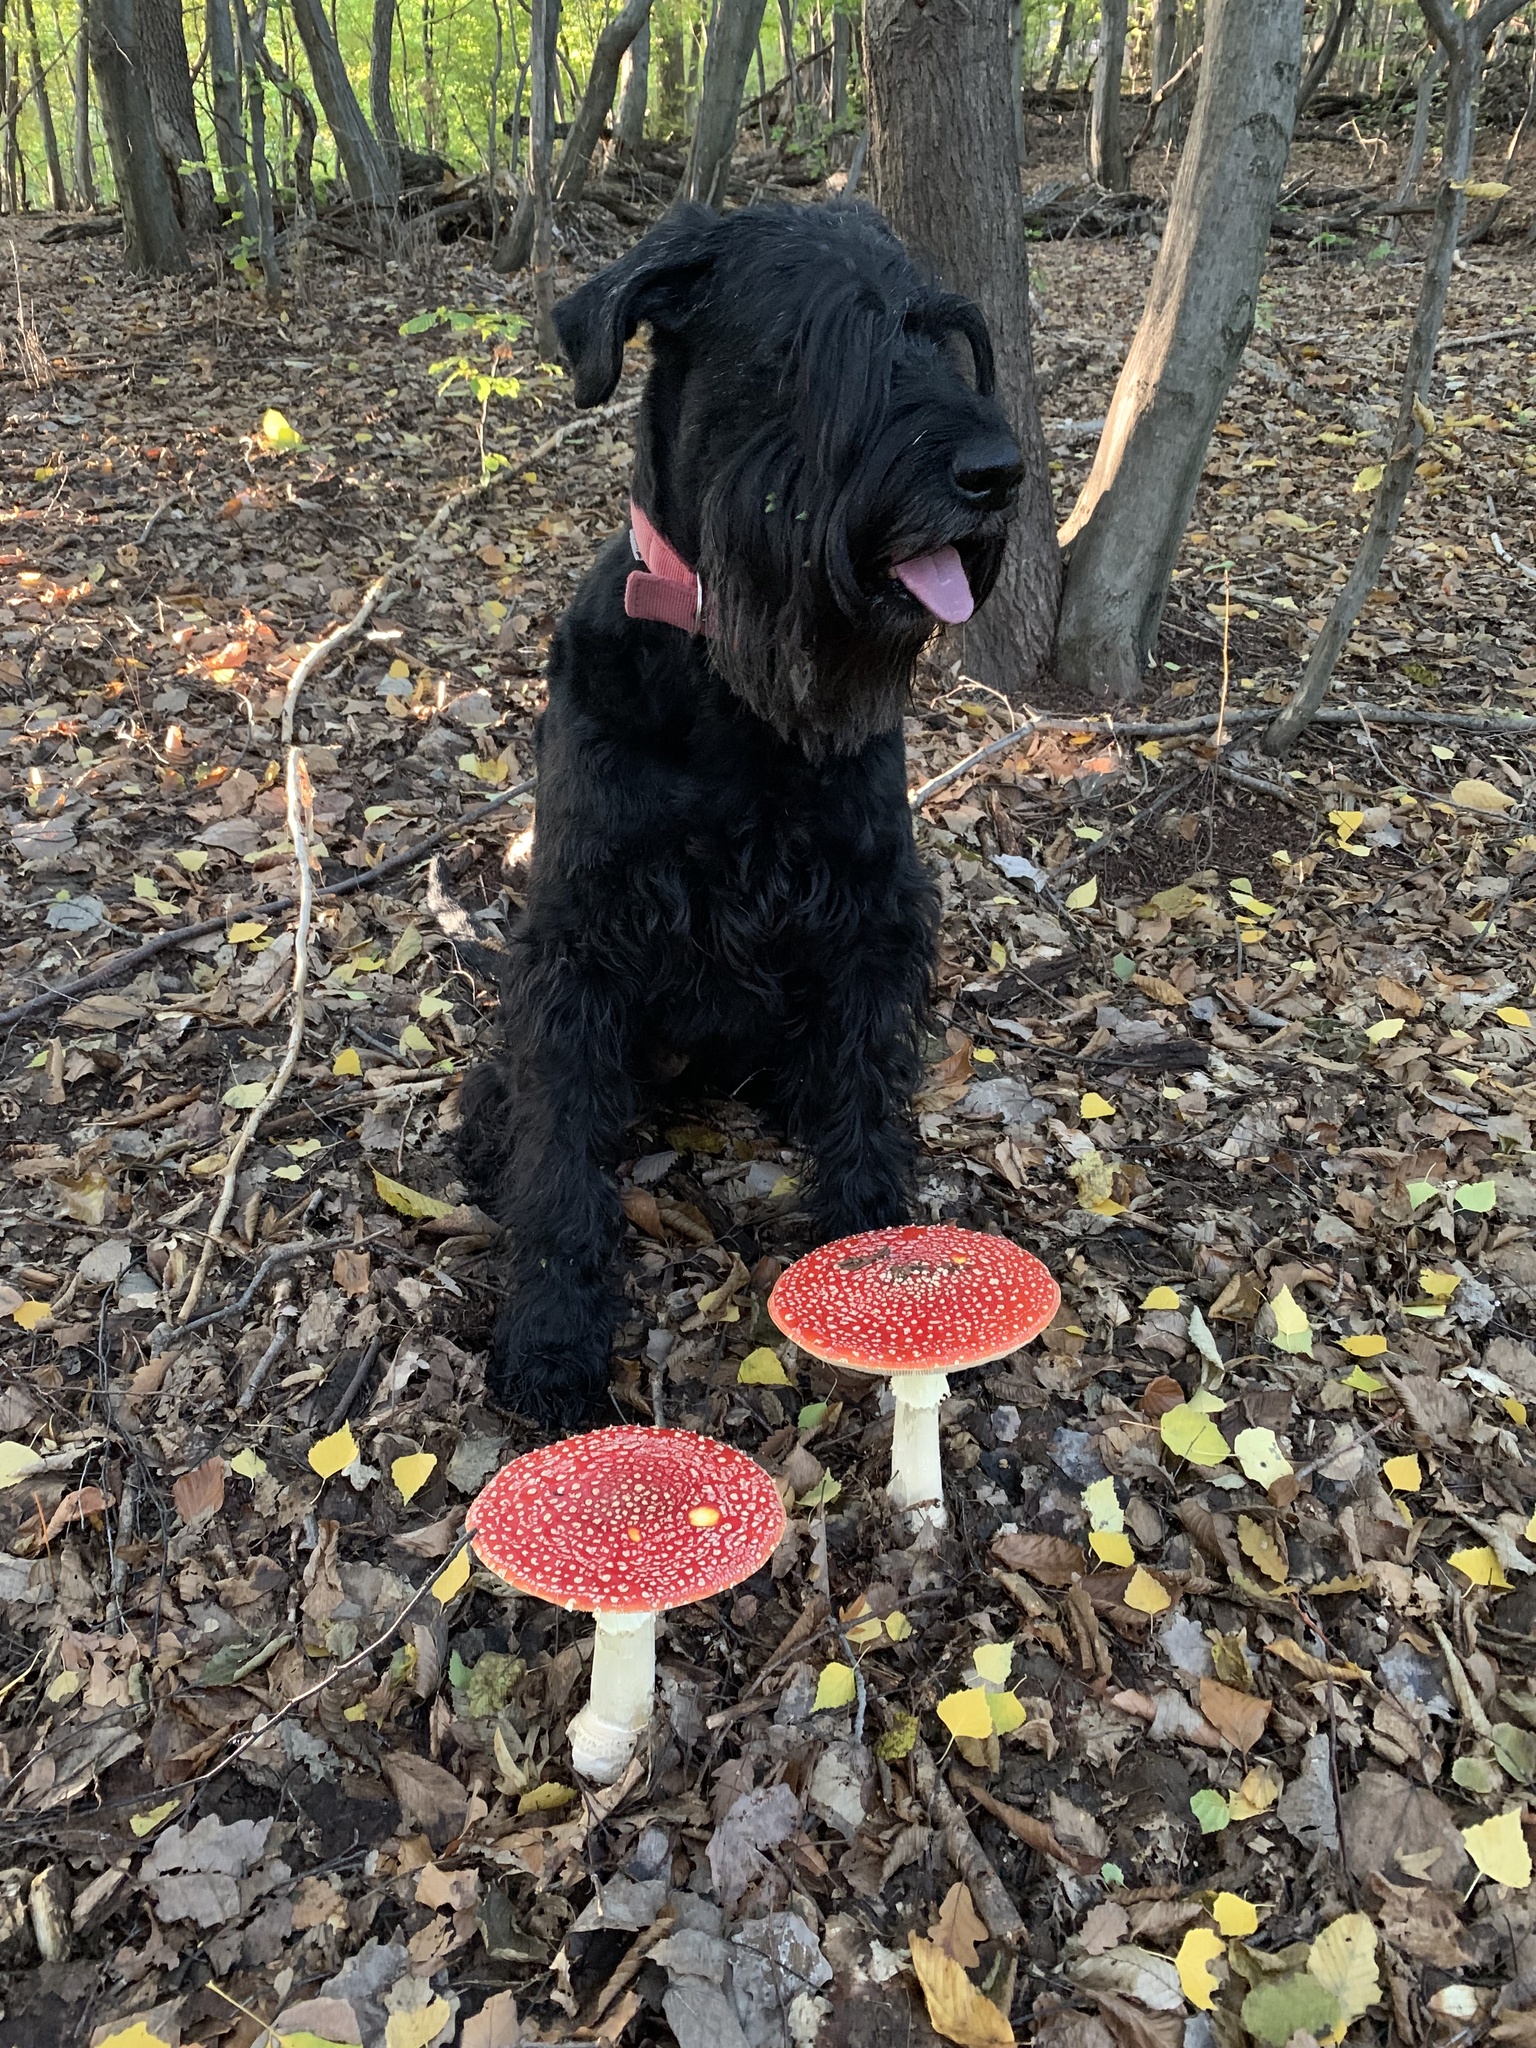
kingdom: Fungi
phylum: Basidiomycota
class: Agaricomycetes
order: Agaricales
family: Amanitaceae
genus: Amanita
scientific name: Amanita muscaria
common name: Fly agaric
